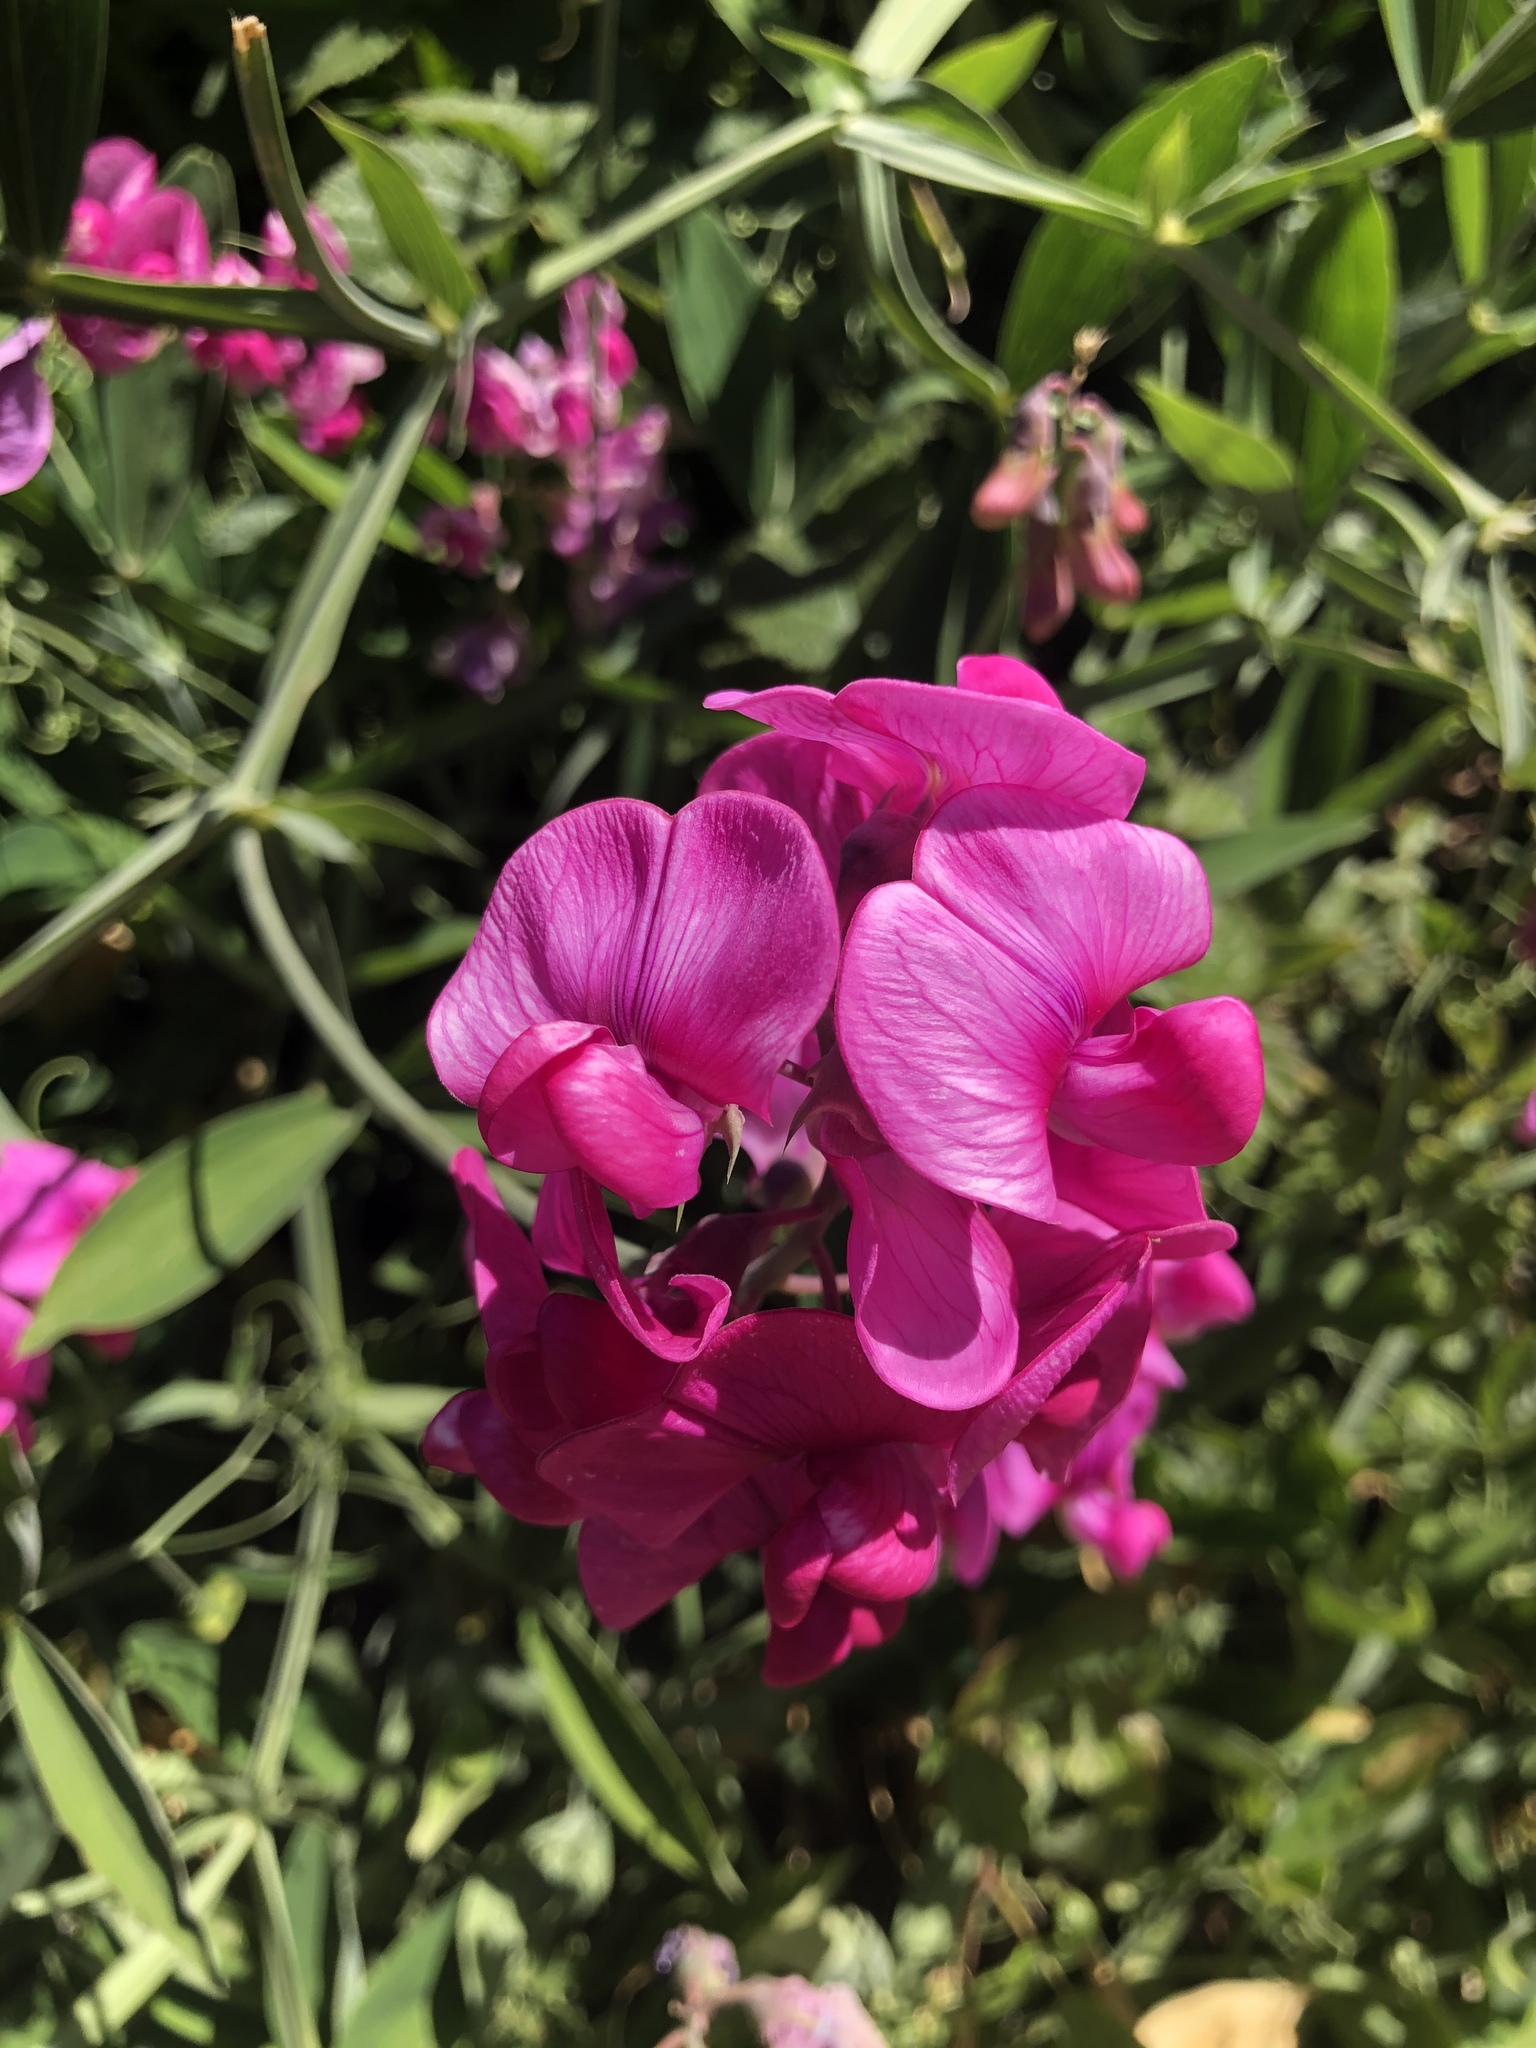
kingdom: Plantae
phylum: Tracheophyta
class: Magnoliopsida
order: Fabales
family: Fabaceae
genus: Lathyrus
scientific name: Lathyrus latifolius
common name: Perennial pea
